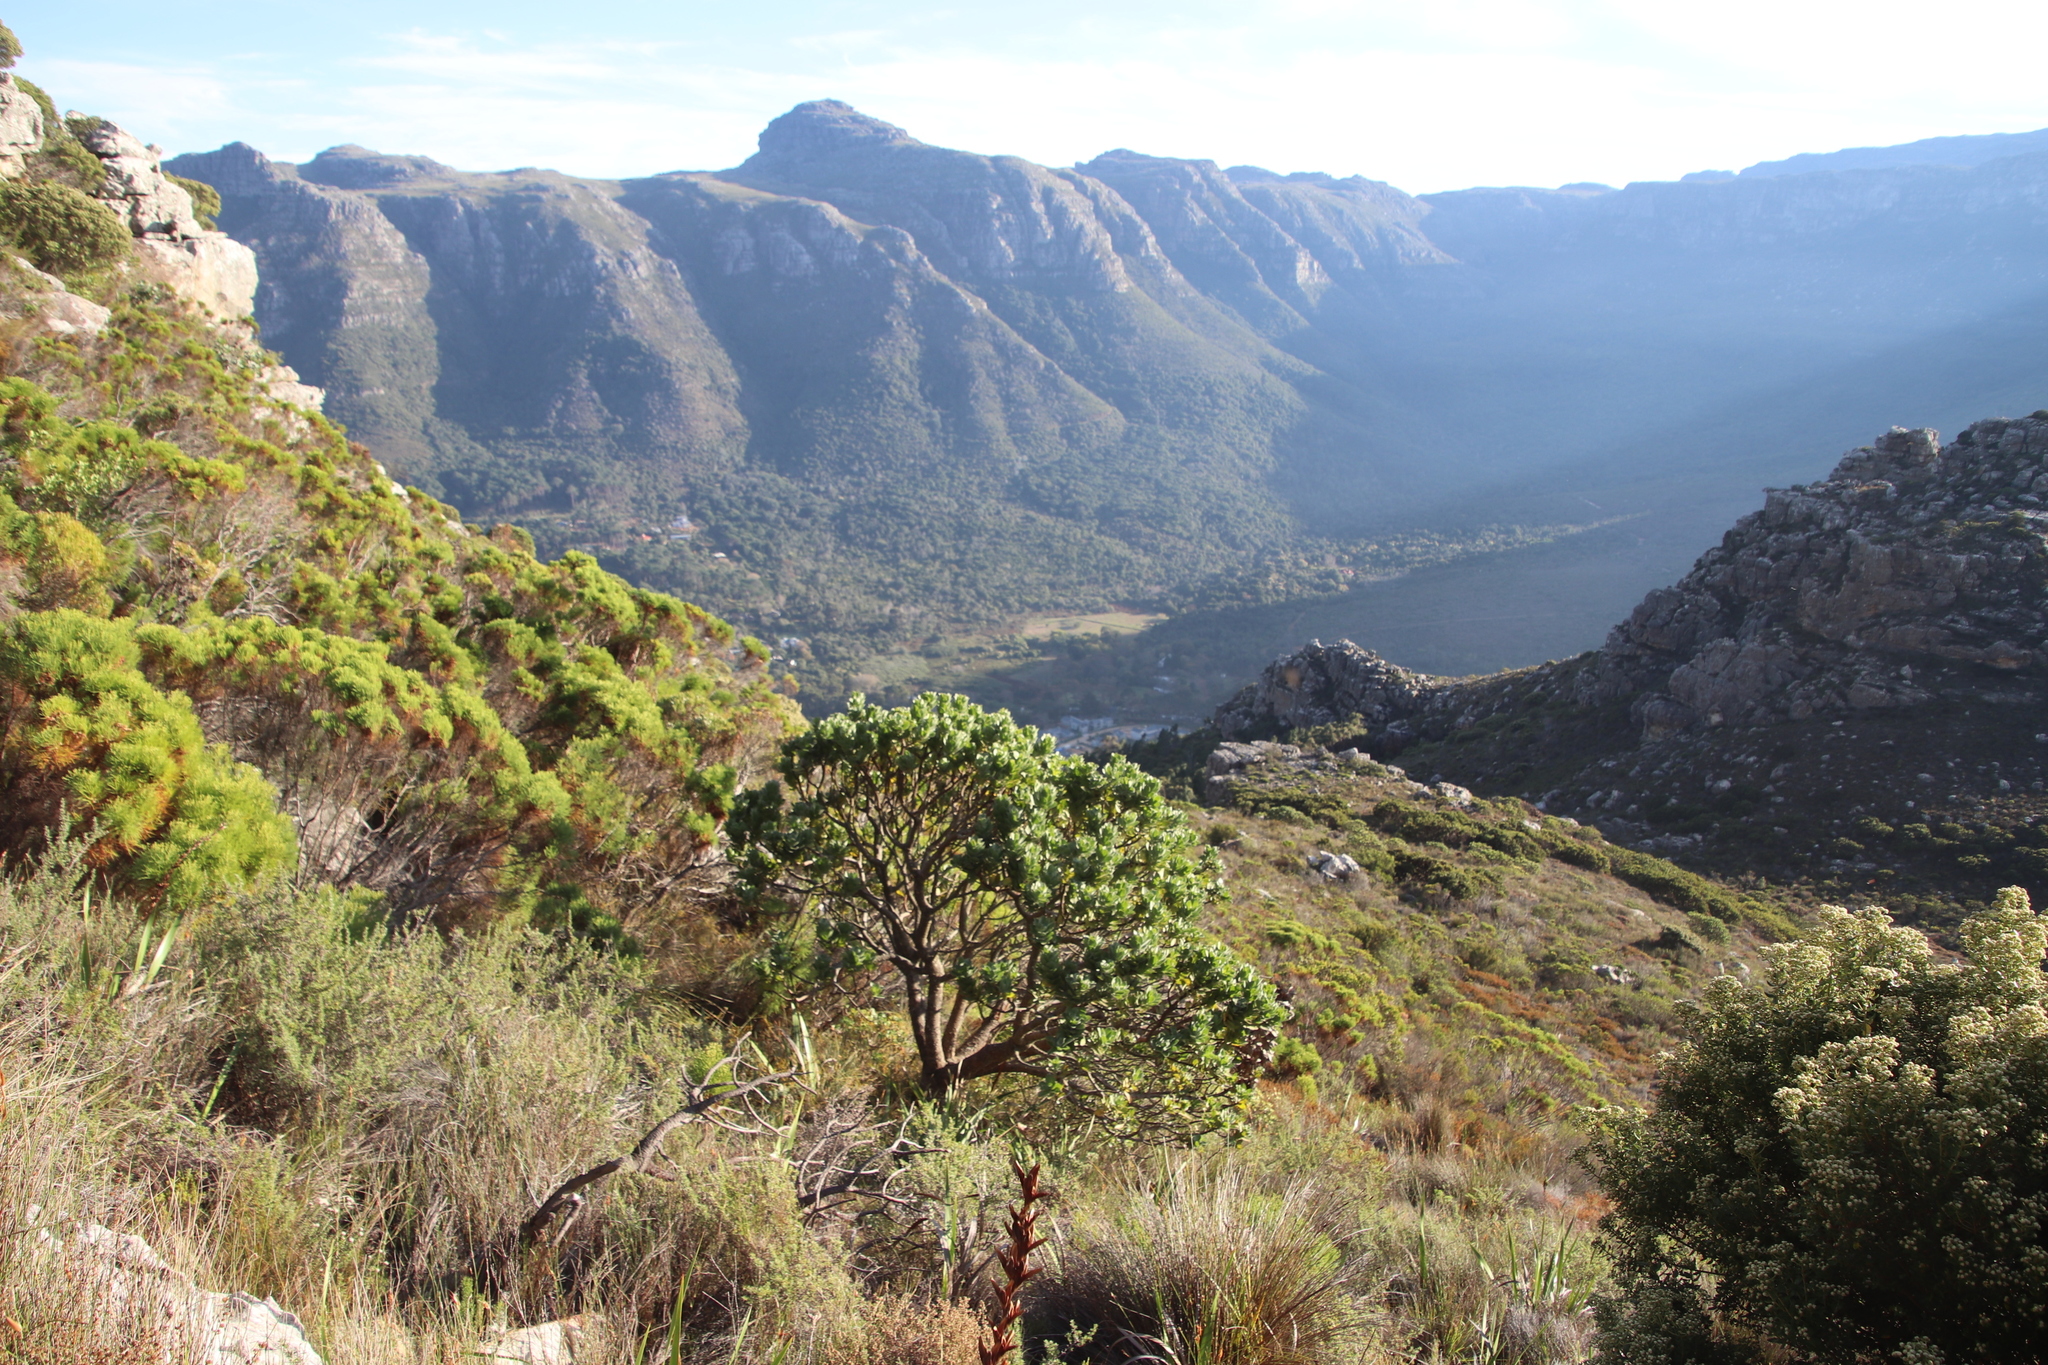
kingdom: Plantae
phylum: Tracheophyta
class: Magnoliopsida
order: Proteales
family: Proteaceae
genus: Leucospermum
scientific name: Leucospermum conocarpodendron
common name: Tree pincushion
